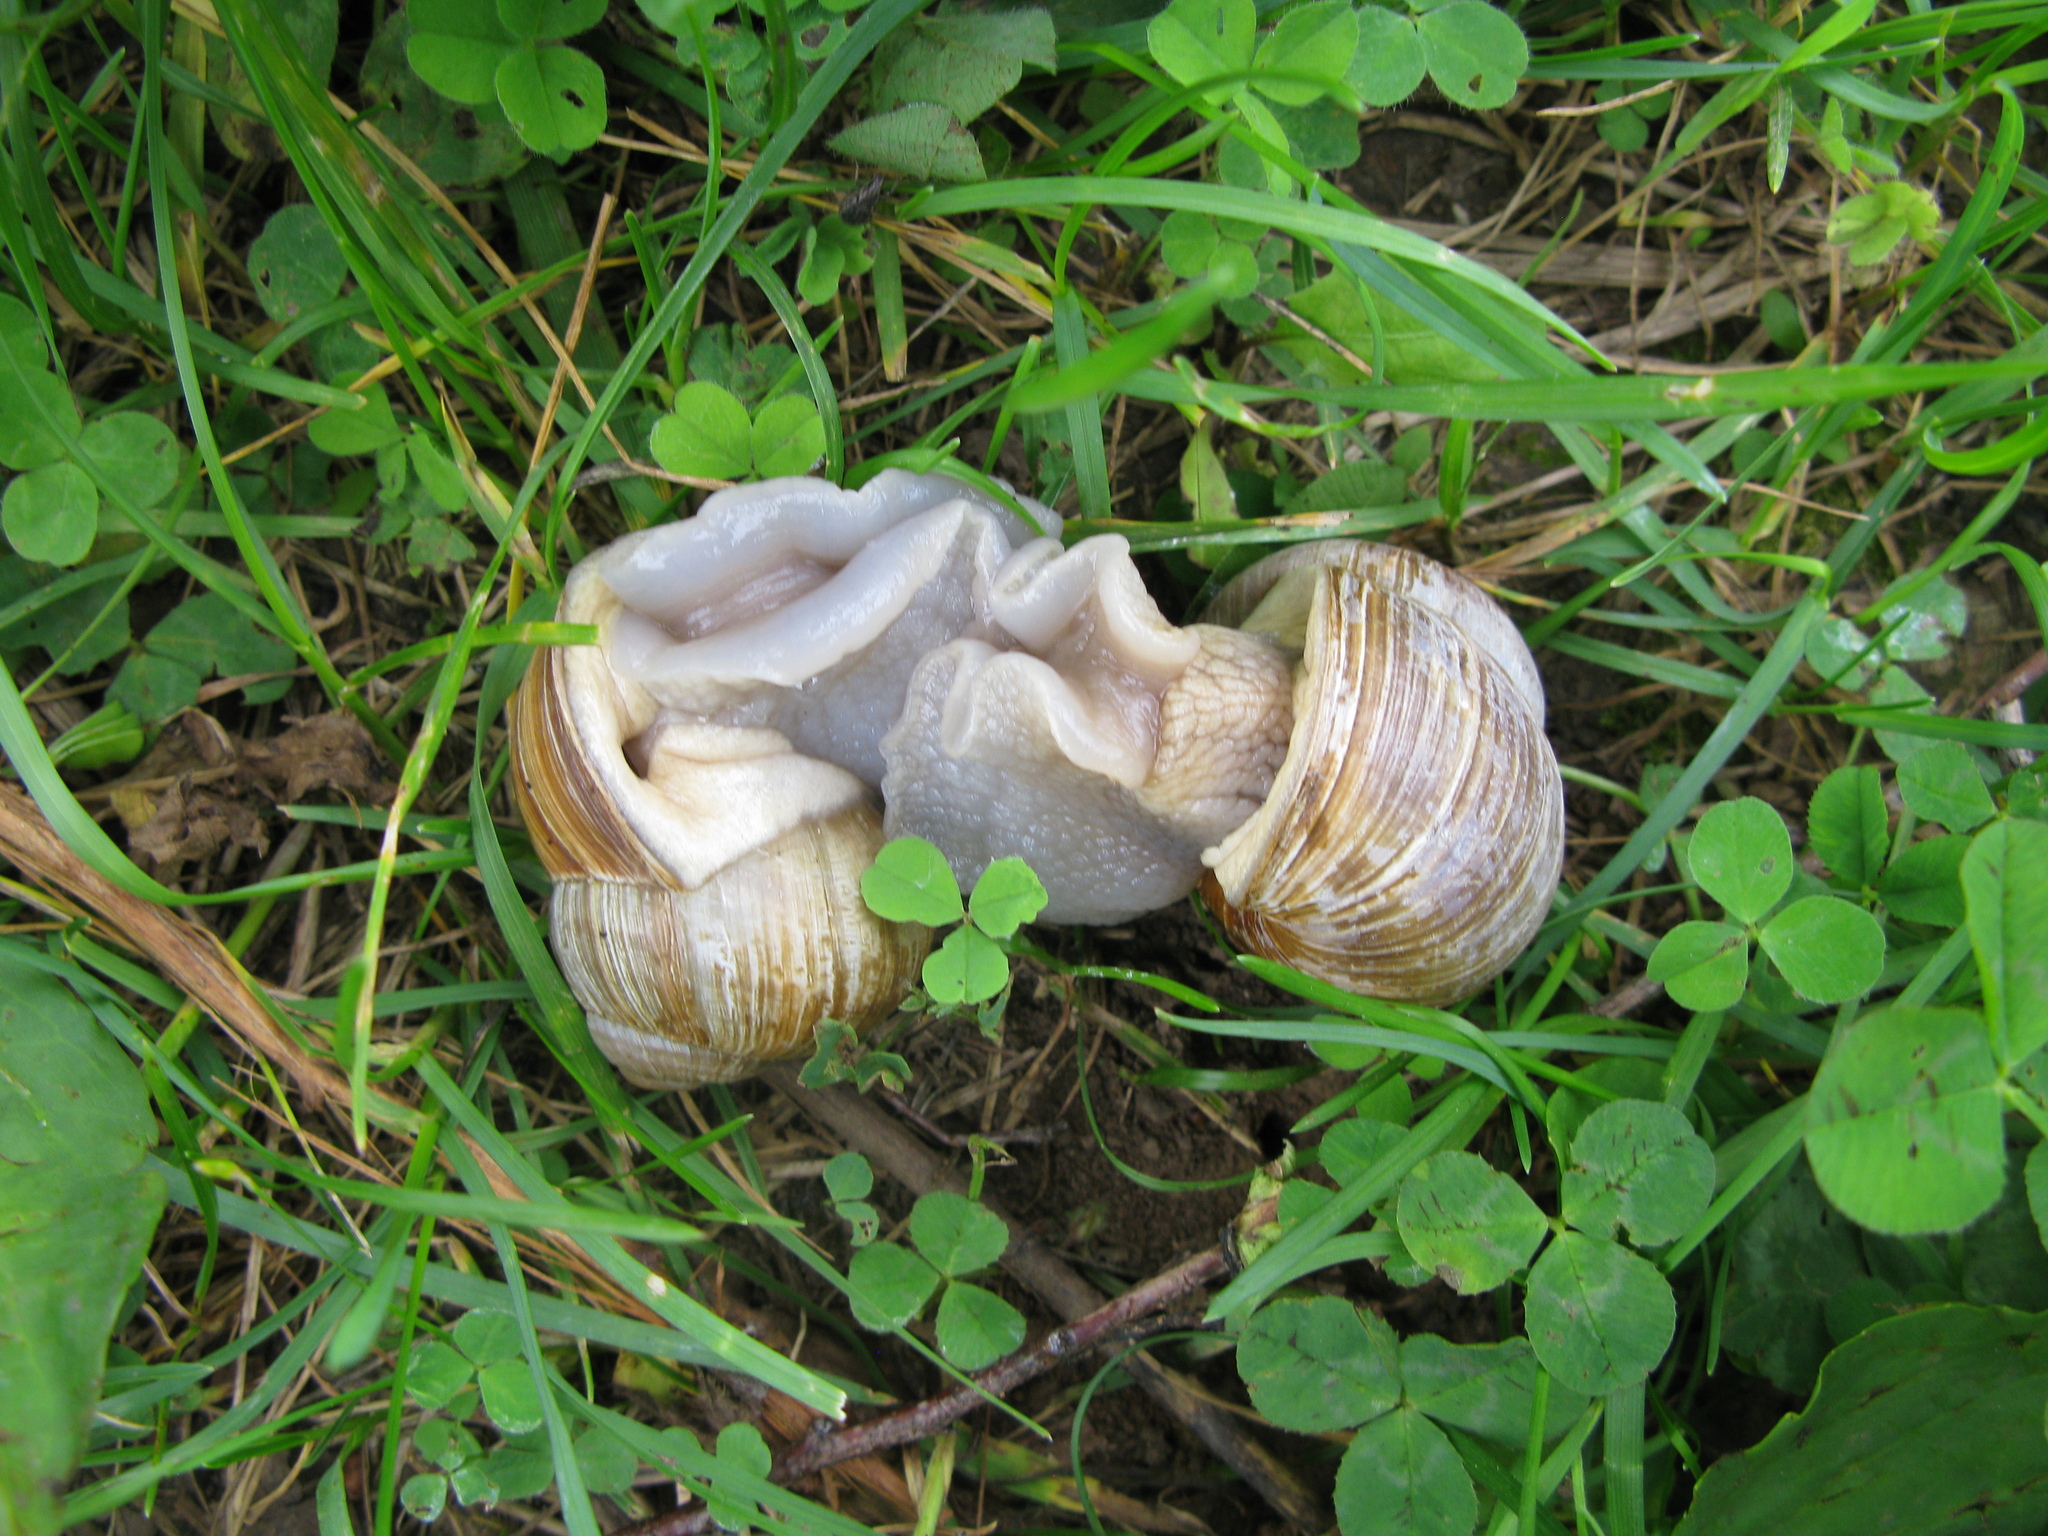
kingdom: Animalia
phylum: Mollusca
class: Gastropoda
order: Stylommatophora
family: Helicidae
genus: Helix
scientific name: Helix pomatia
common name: Roman snail
